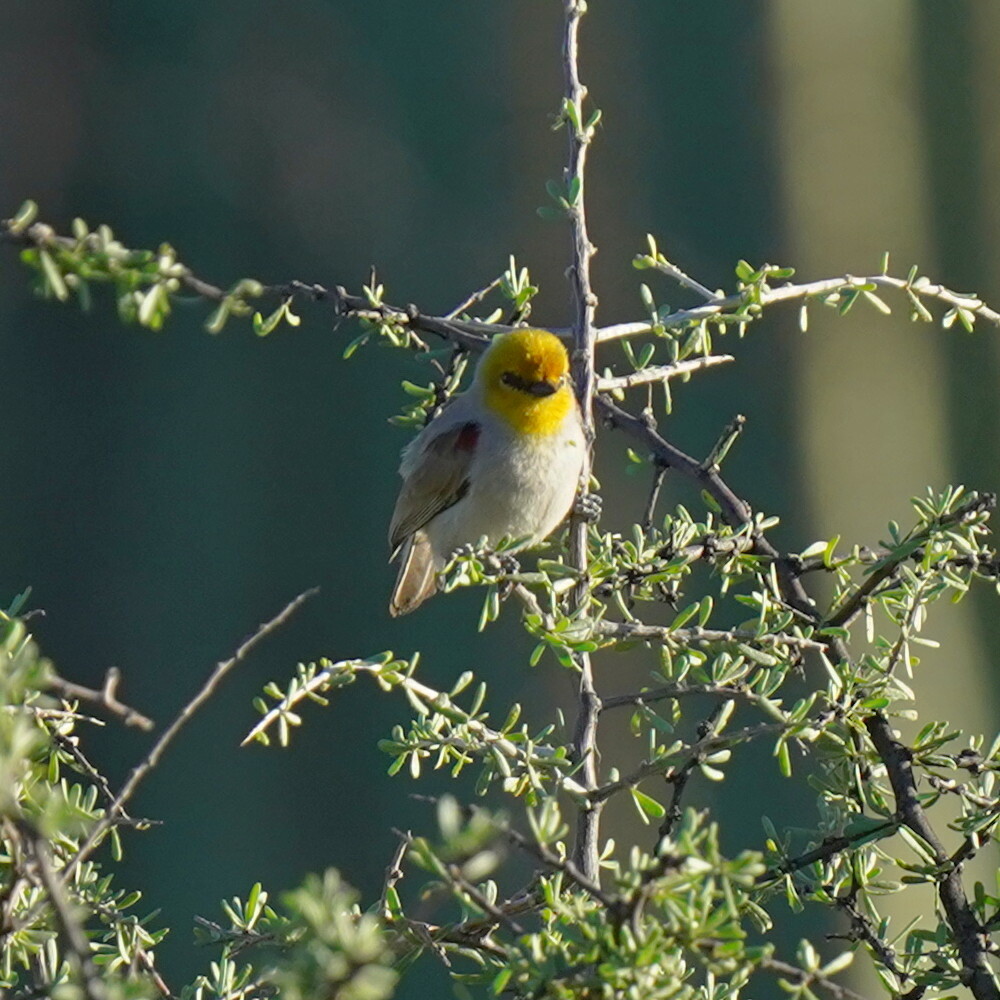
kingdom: Animalia
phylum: Chordata
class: Aves
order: Passeriformes
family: Remizidae
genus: Auriparus
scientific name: Auriparus flaviceps
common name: Verdin
